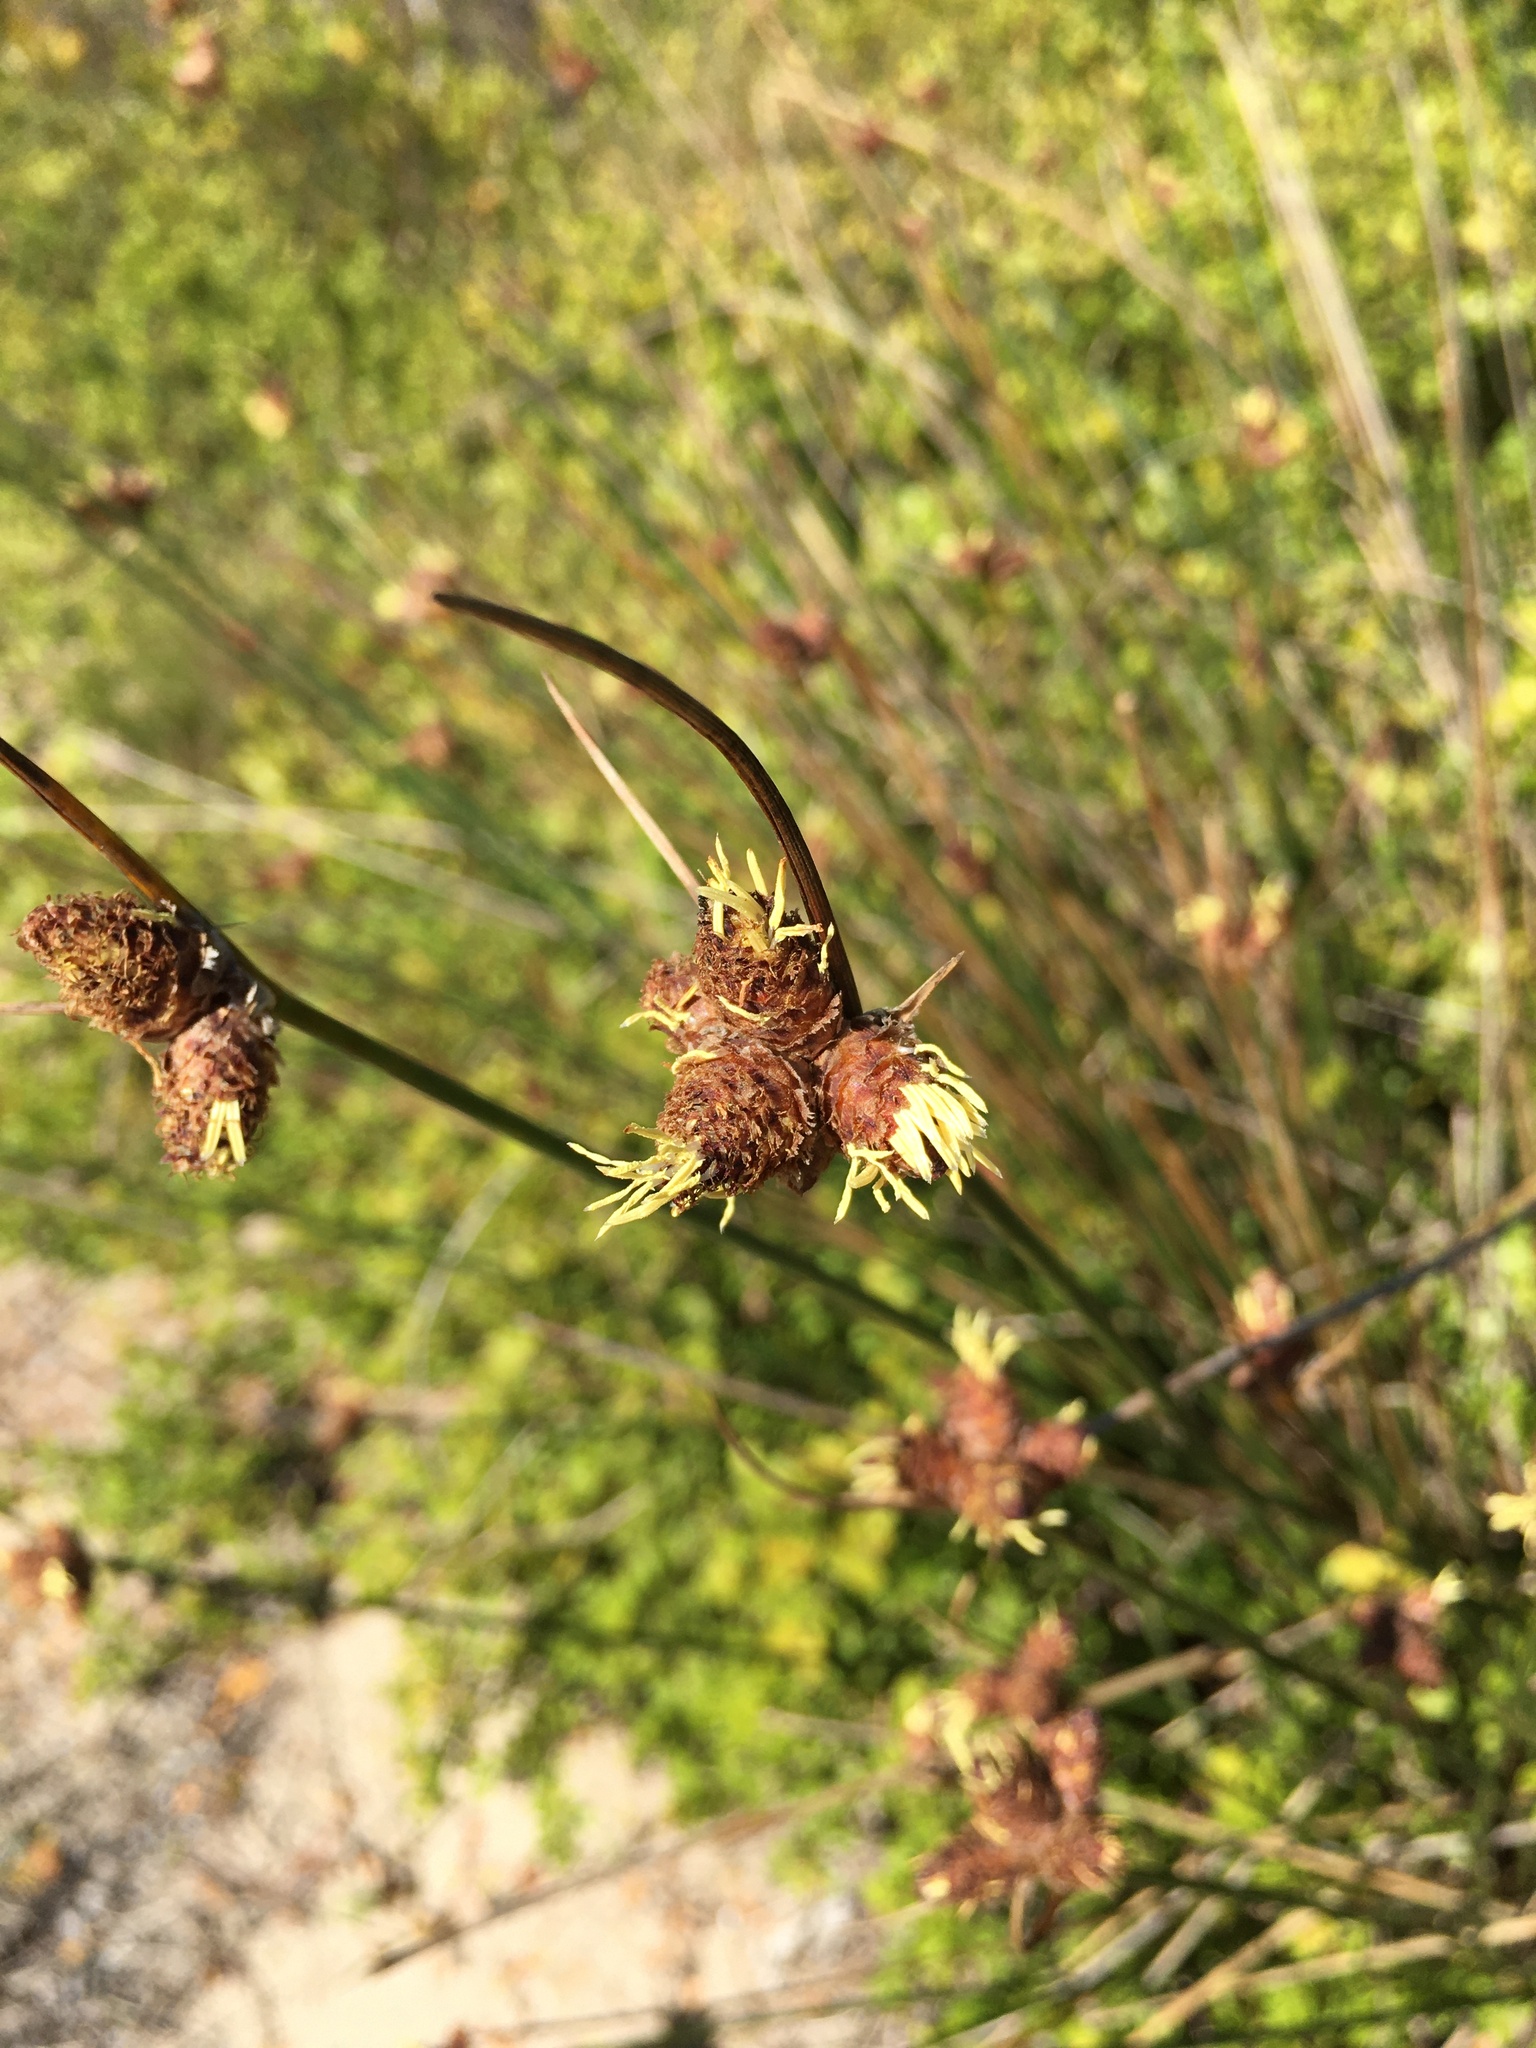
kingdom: Plantae
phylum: Tracheophyta
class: Liliopsida
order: Poales
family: Cyperaceae
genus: Hellmuthia
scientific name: Hellmuthia membranacea
